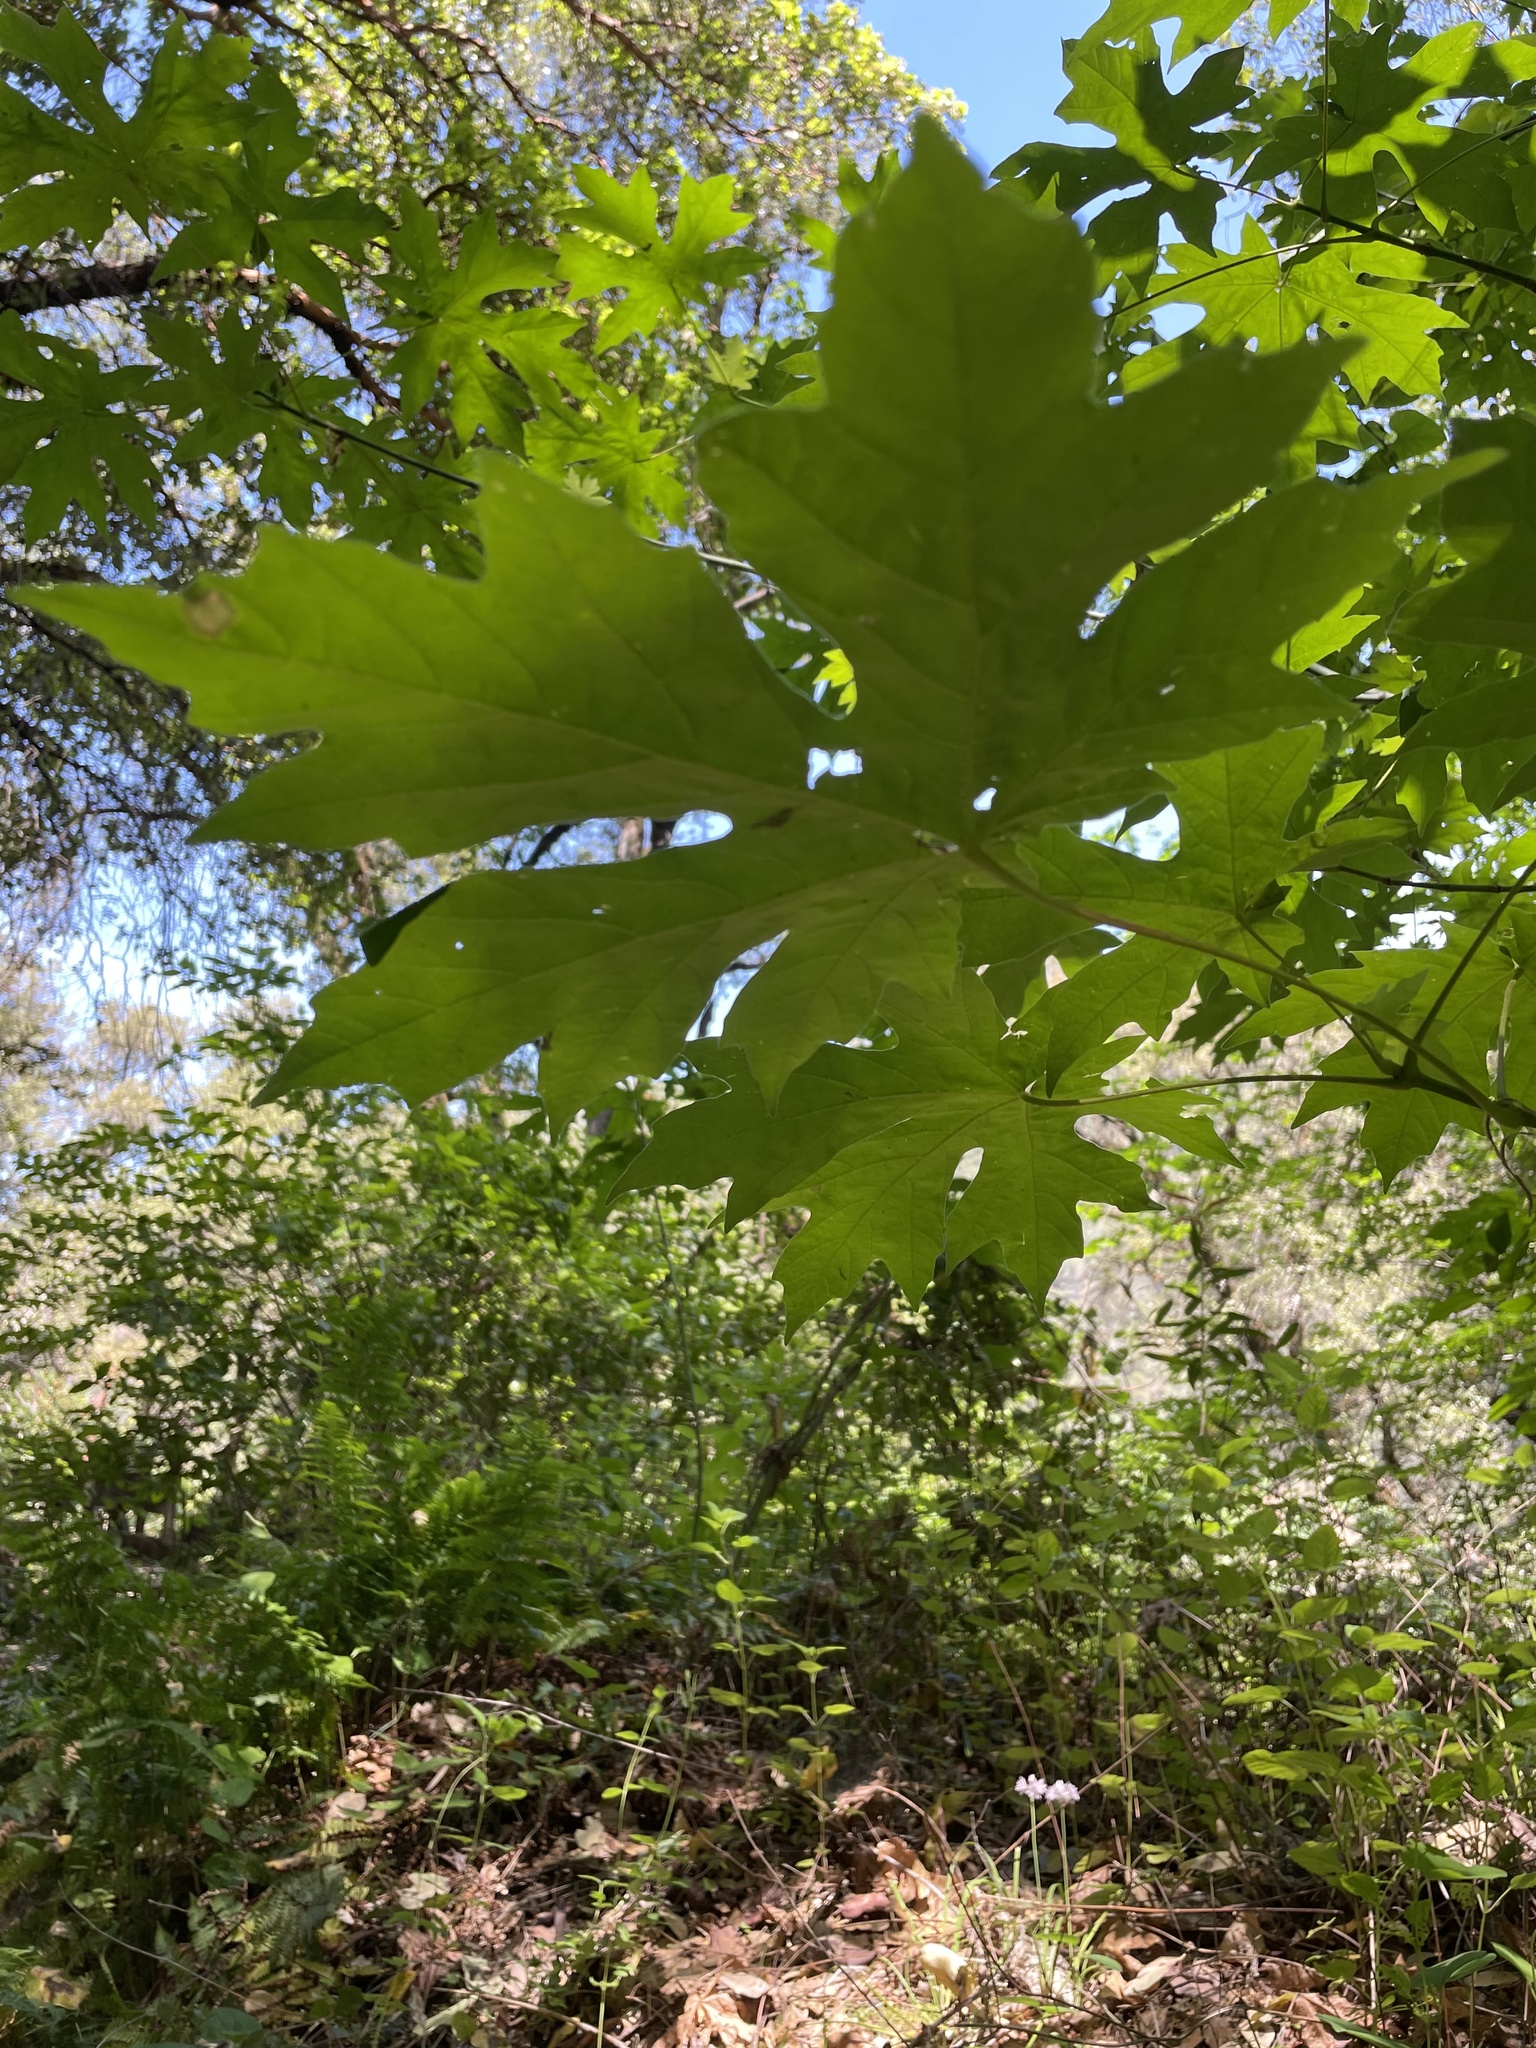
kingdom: Plantae
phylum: Tracheophyta
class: Magnoliopsida
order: Sapindales
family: Sapindaceae
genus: Acer
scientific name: Acer macrophyllum
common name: Oregon maple
